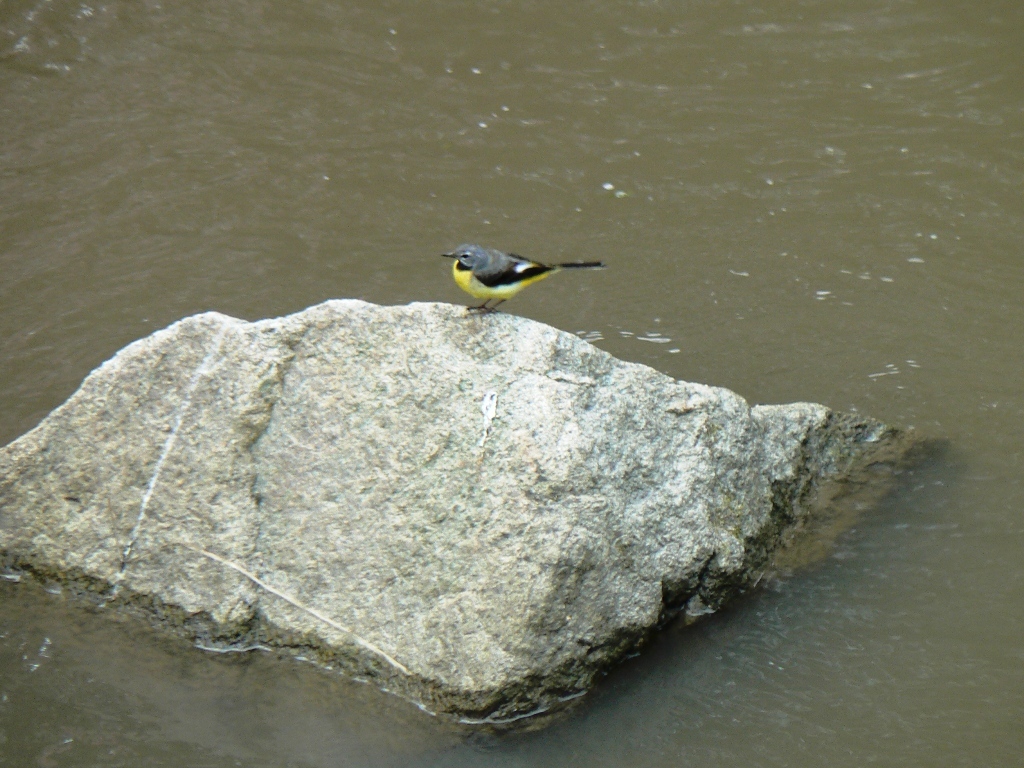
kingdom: Animalia
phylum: Chordata
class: Aves
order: Passeriformes
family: Motacillidae
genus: Motacilla
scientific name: Motacilla cinerea
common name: Grey wagtail
